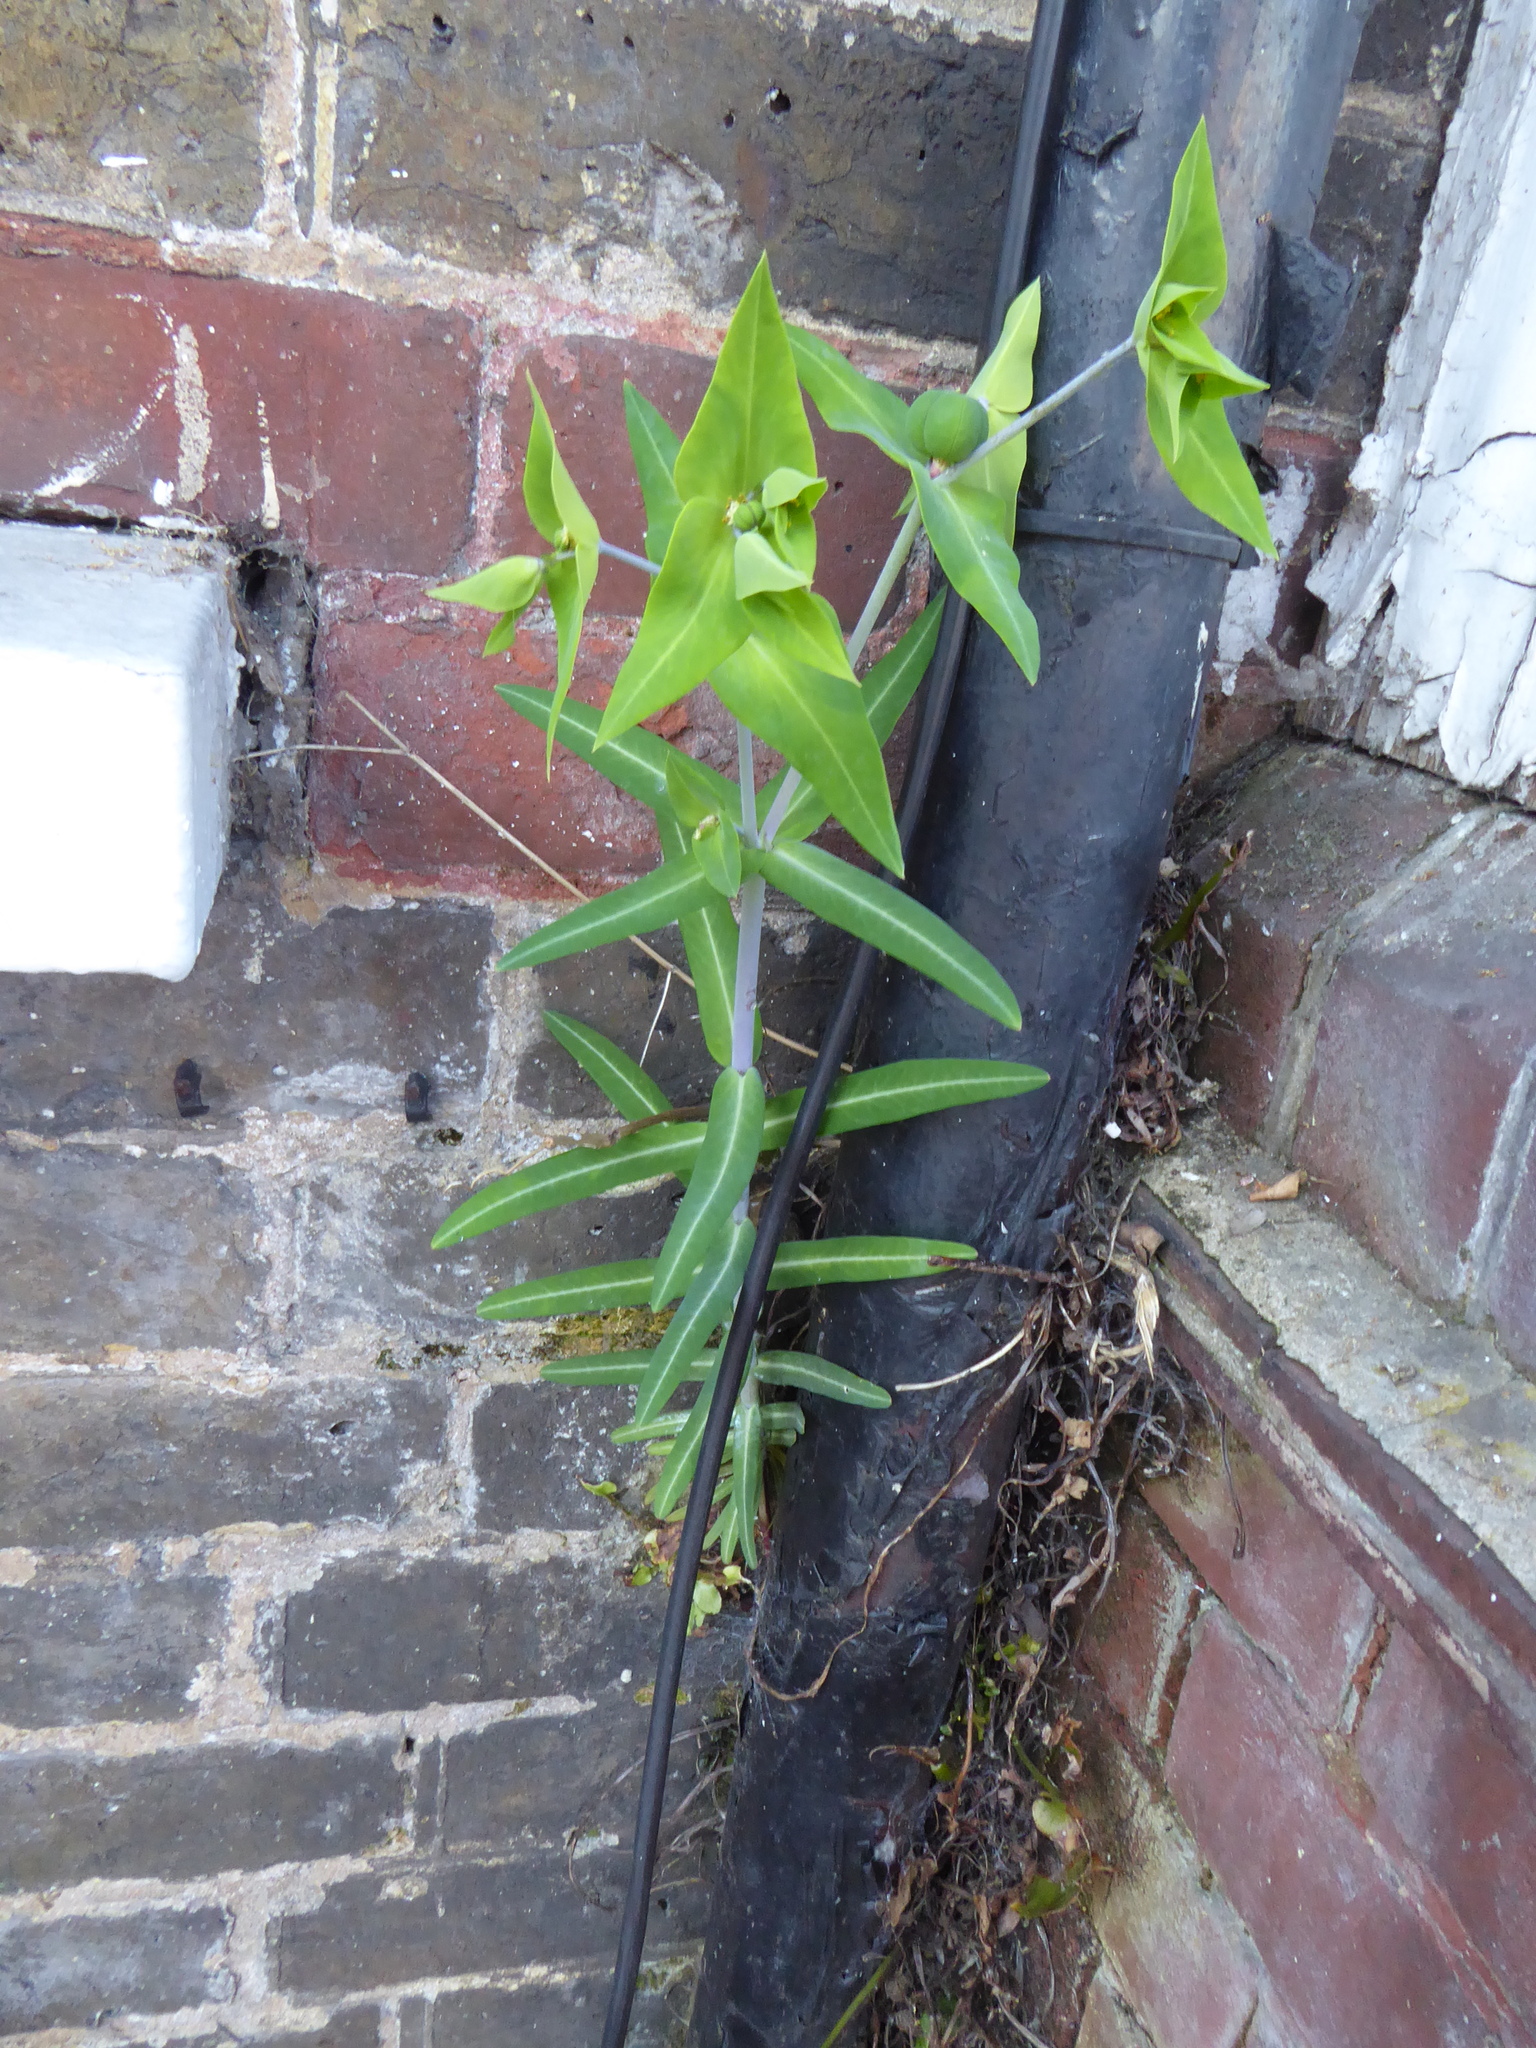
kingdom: Plantae
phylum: Tracheophyta
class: Magnoliopsida
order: Malpighiales
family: Euphorbiaceae
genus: Euphorbia
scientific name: Euphorbia lathyris
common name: Caper spurge
